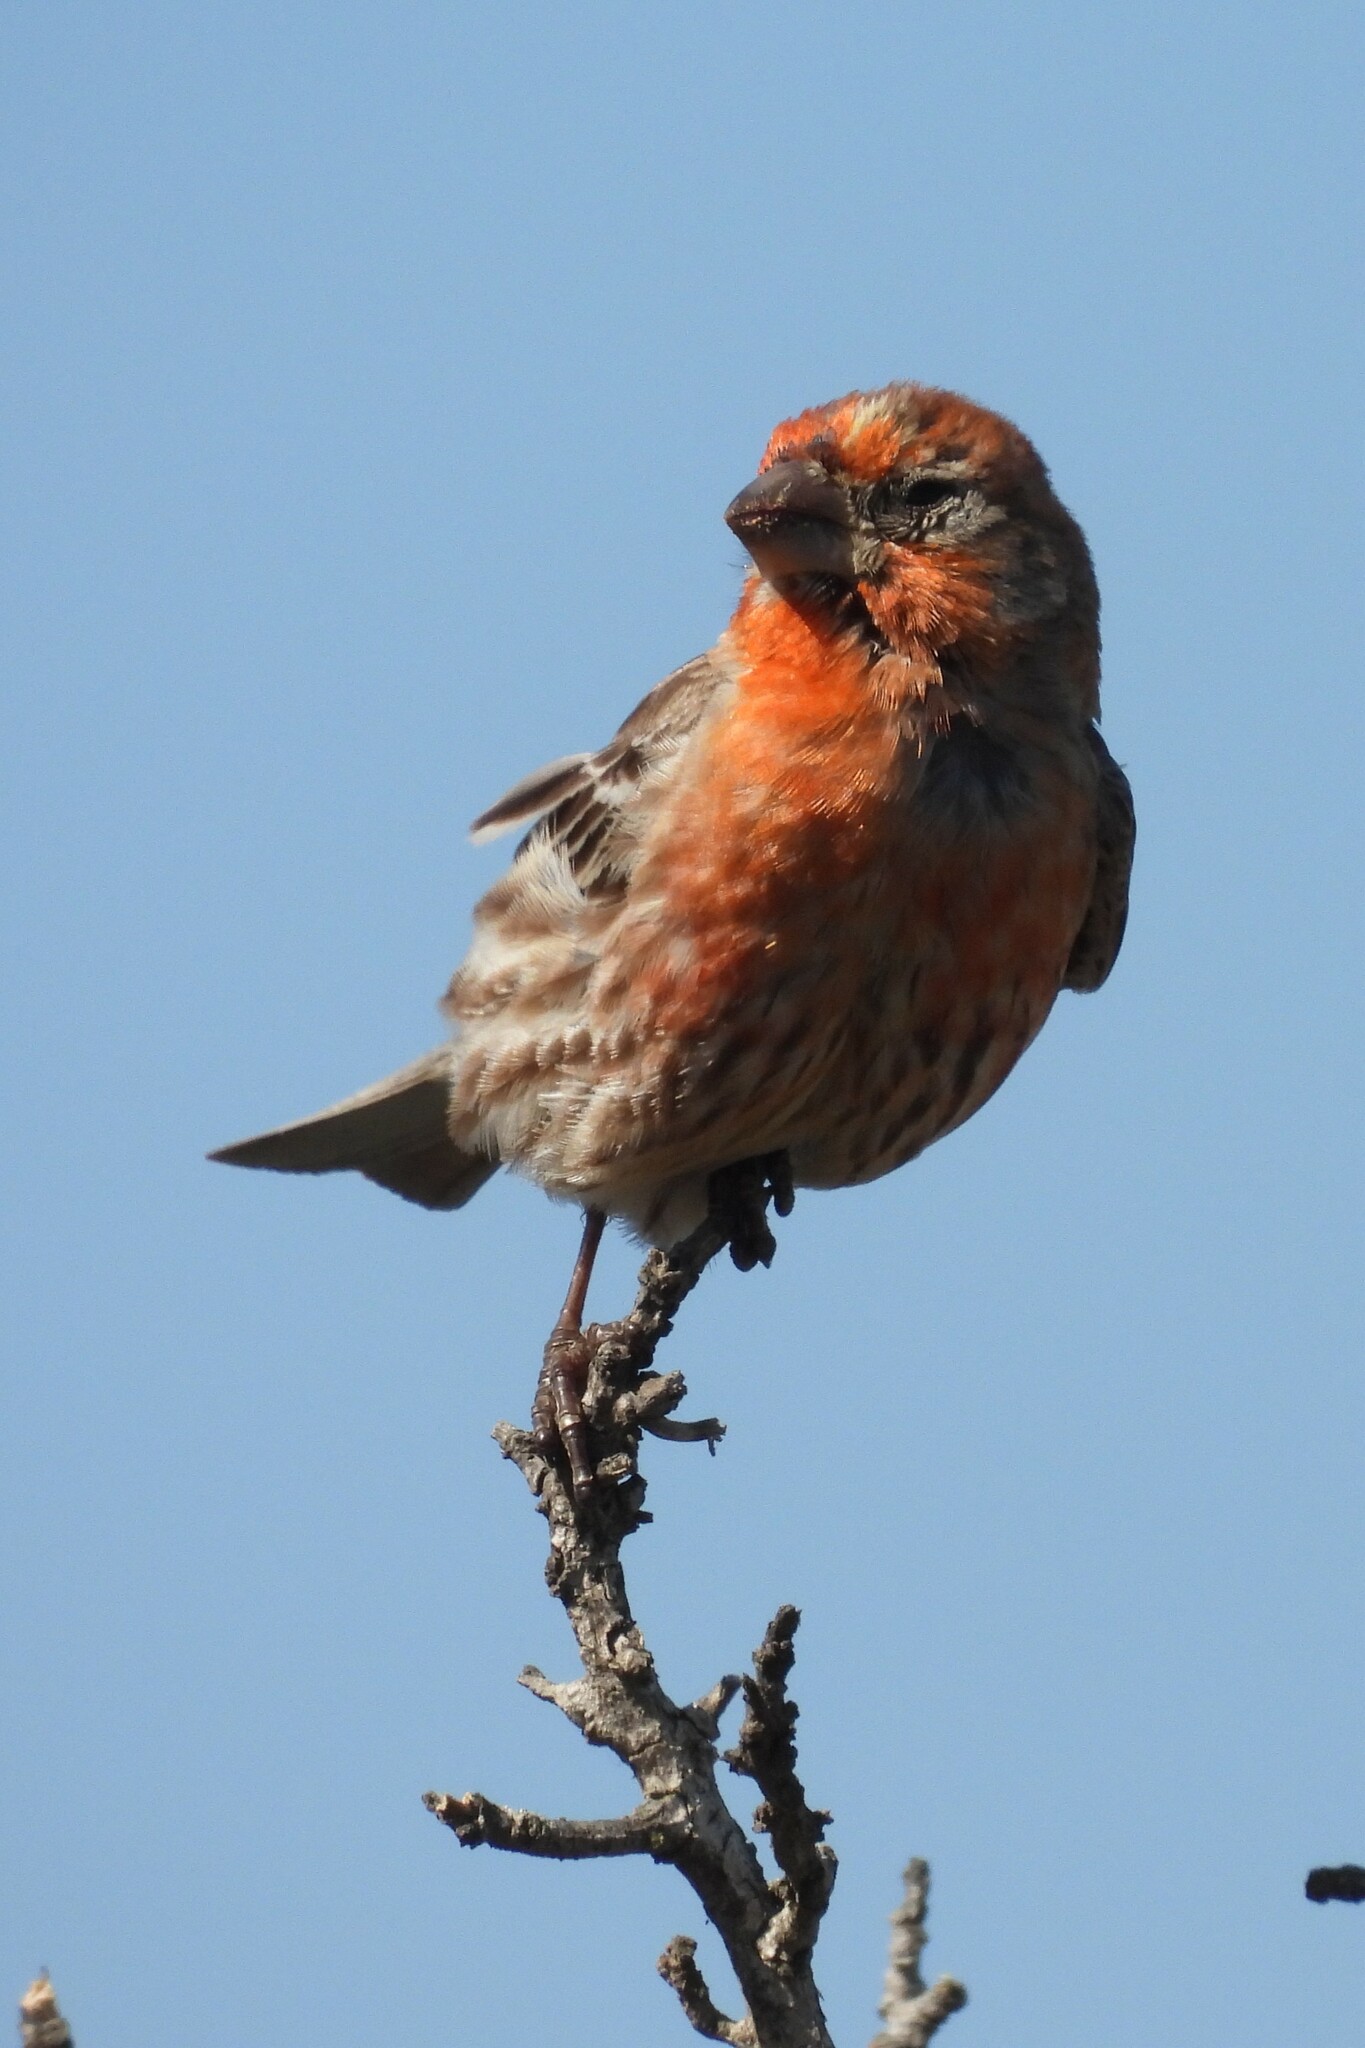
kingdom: Animalia
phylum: Chordata
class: Aves
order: Passeriformes
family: Fringillidae
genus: Haemorhous
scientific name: Haemorhous mexicanus
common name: House finch
